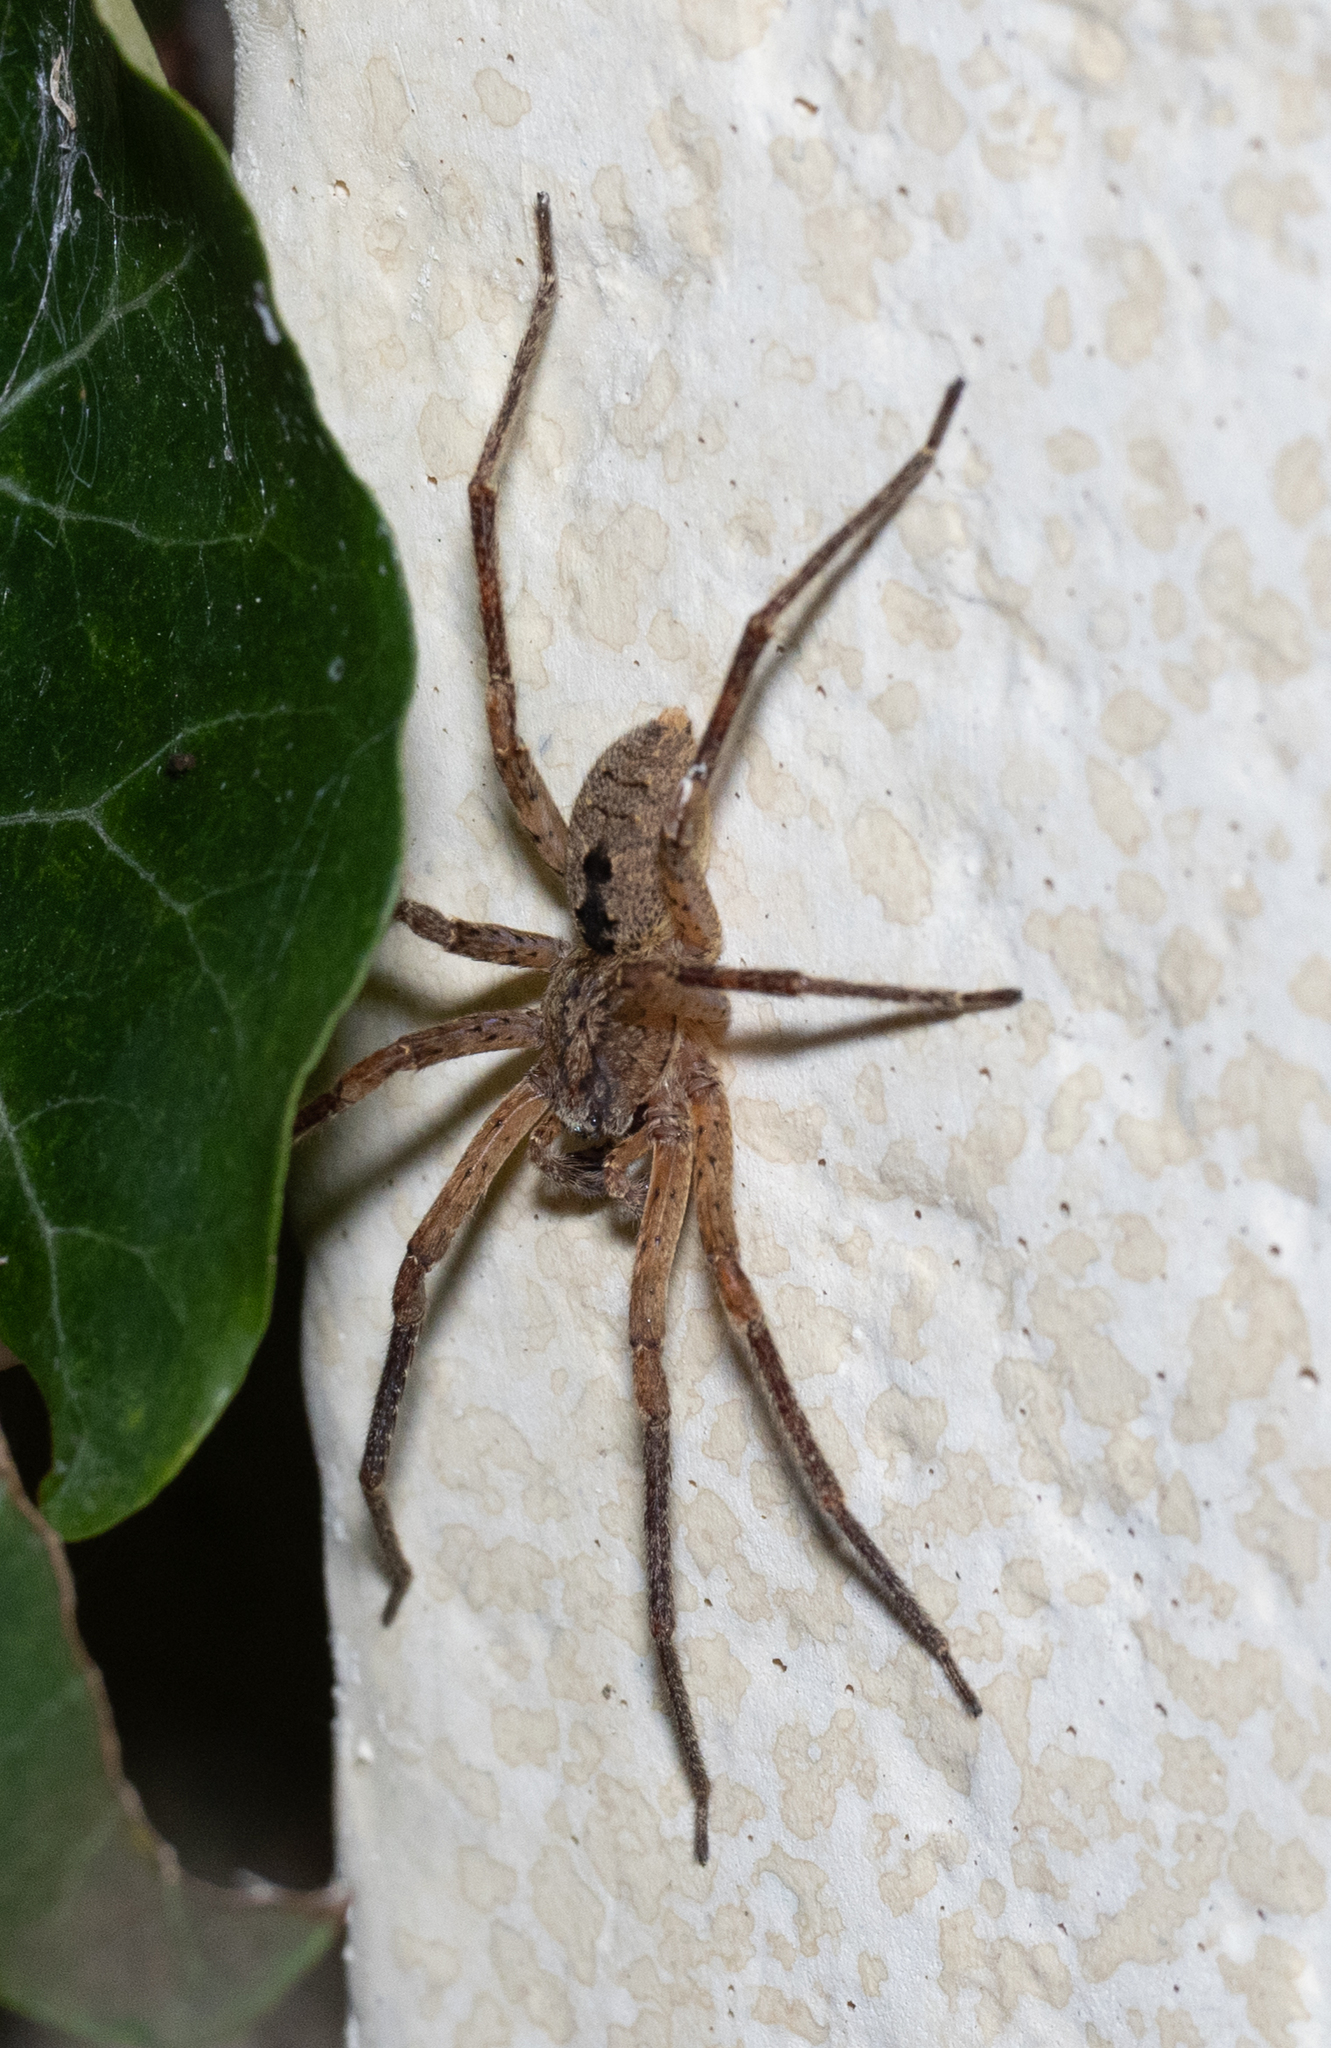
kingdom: Animalia
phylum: Arthropoda
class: Arachnida
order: Araneae
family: Zoropsidae
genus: Zoropsis
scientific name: Zoropsis spinimana
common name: Zoropsid spider
